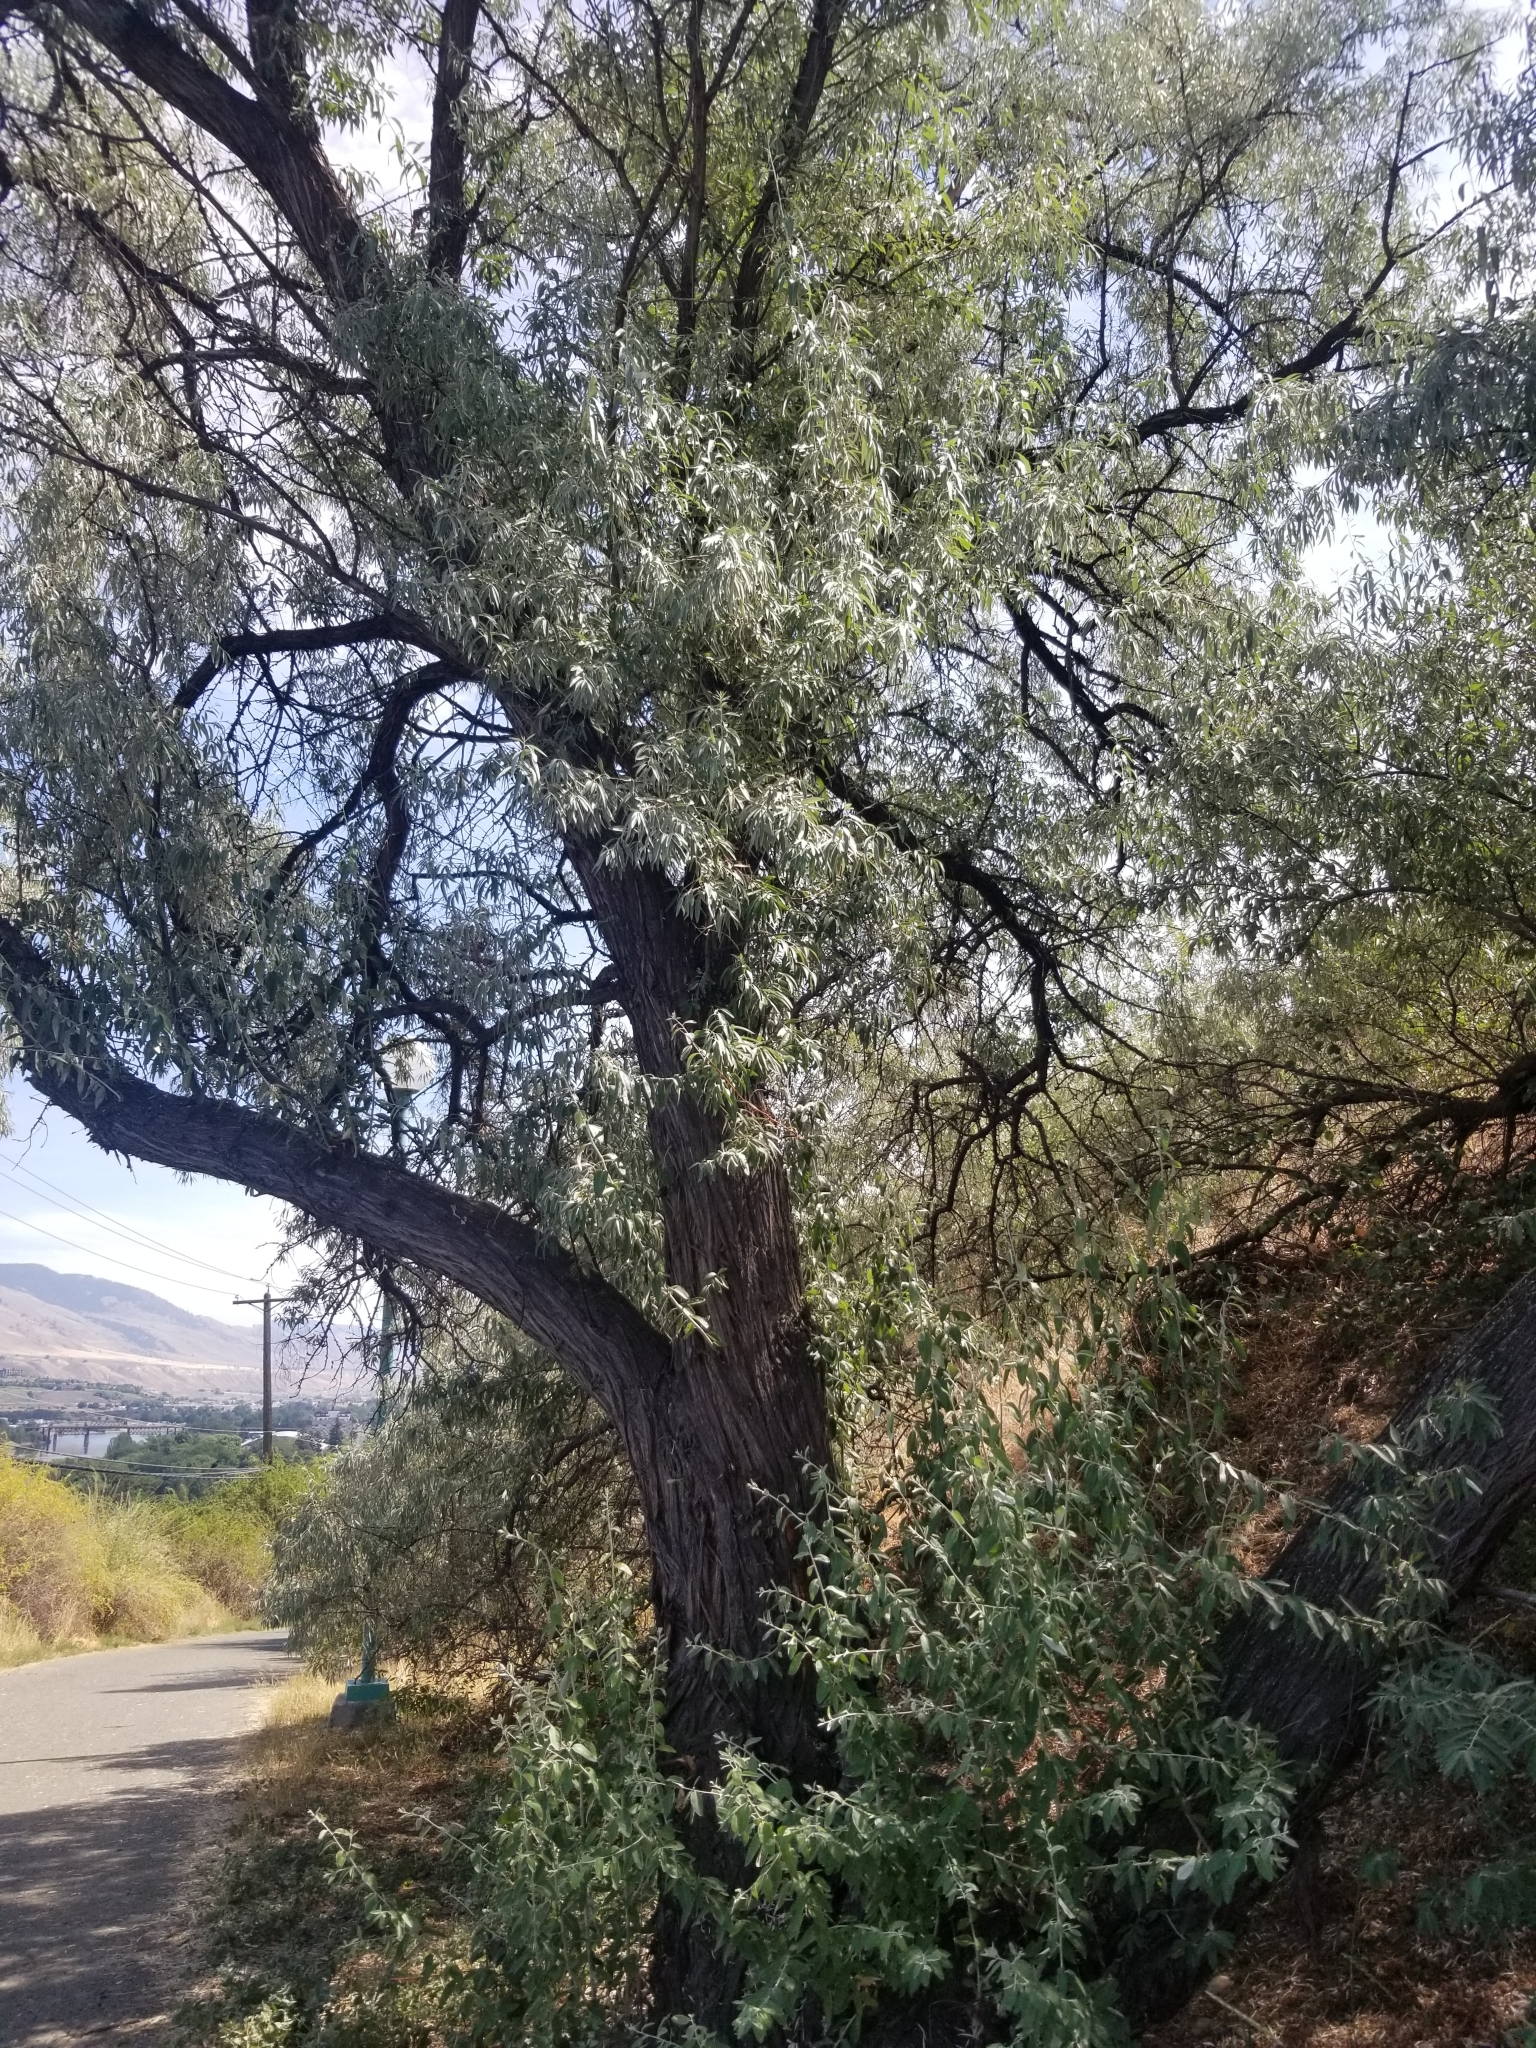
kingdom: Plantae
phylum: Tracheophyta
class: Magnoliopsida
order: Rosales
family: Elaeagnaceae
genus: Elaeagnus
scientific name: Elaeagnus angustifolia
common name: Russian olive
